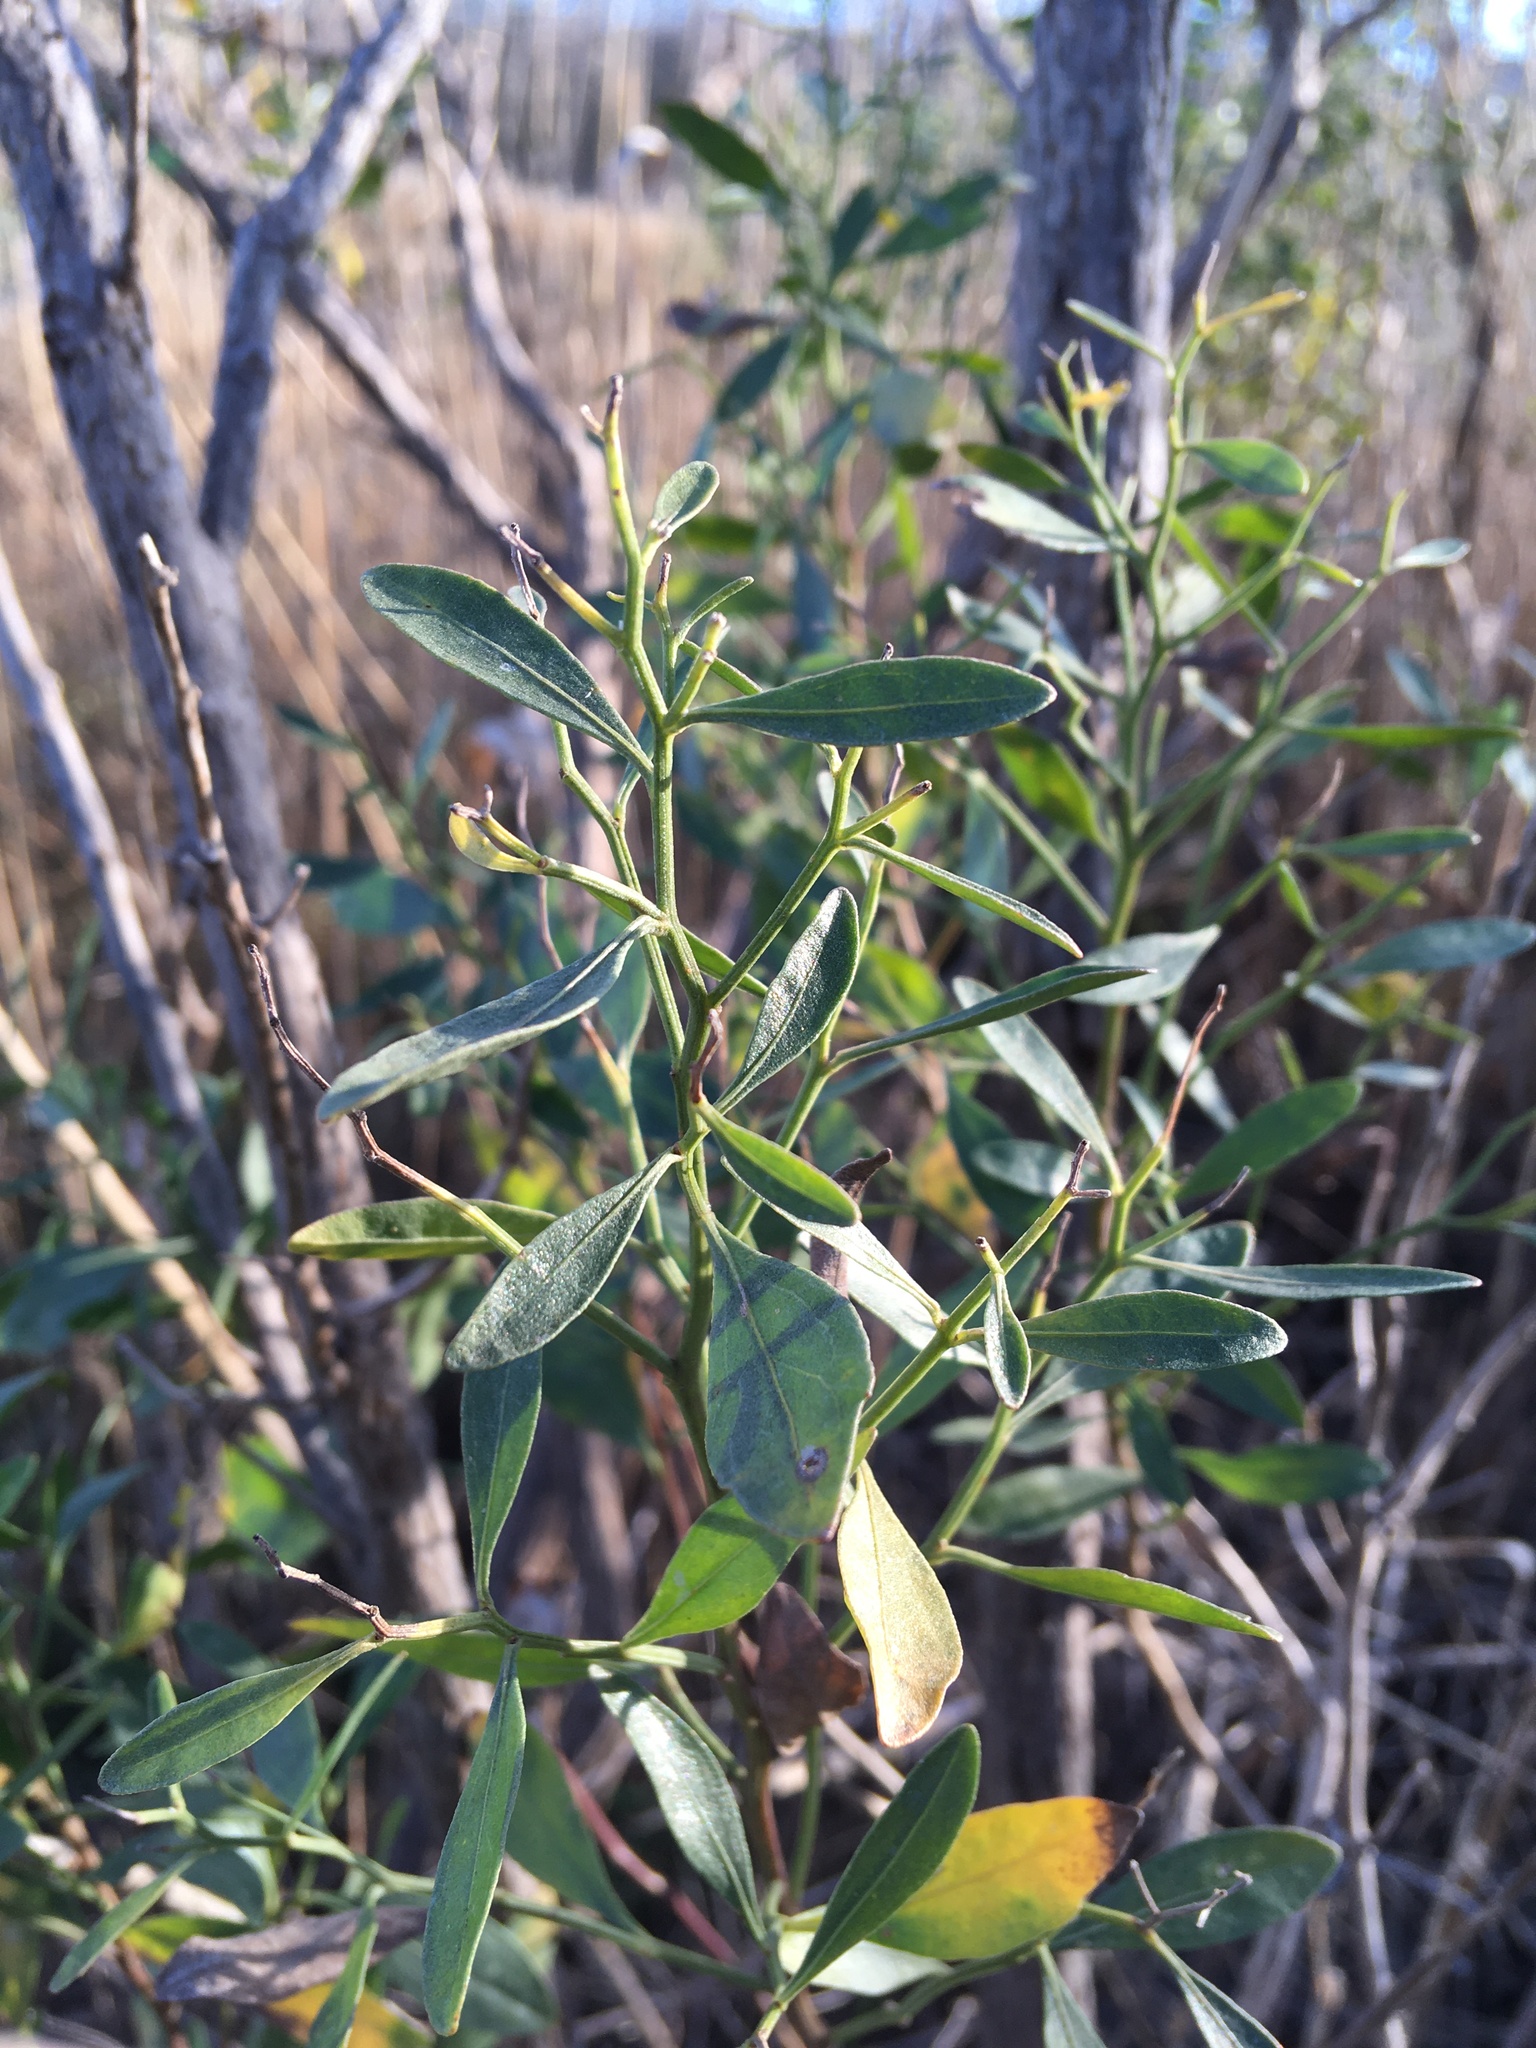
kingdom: Plantae
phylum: Tracheophyta
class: Magnoliopsida
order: Asterales
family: Asteraceae
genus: Baccharis
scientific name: Baccharis halimifolia
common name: Eastern baccharis
